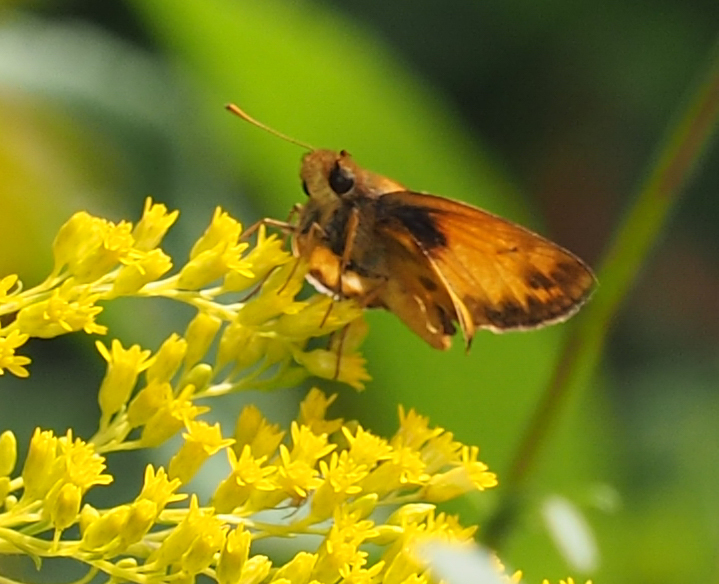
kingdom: Animalia
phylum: Arthropoda
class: Insecta
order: Lepidoptera
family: Hesperiidae
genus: Lon
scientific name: Lon zabulon
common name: Zabulon skipper
